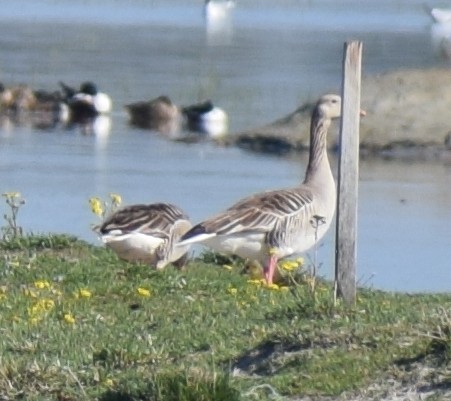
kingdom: Animalia
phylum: Chordata
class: Aves
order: Anseriformes
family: Anatidae
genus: Anser
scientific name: Anser anser
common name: Greylag goose
